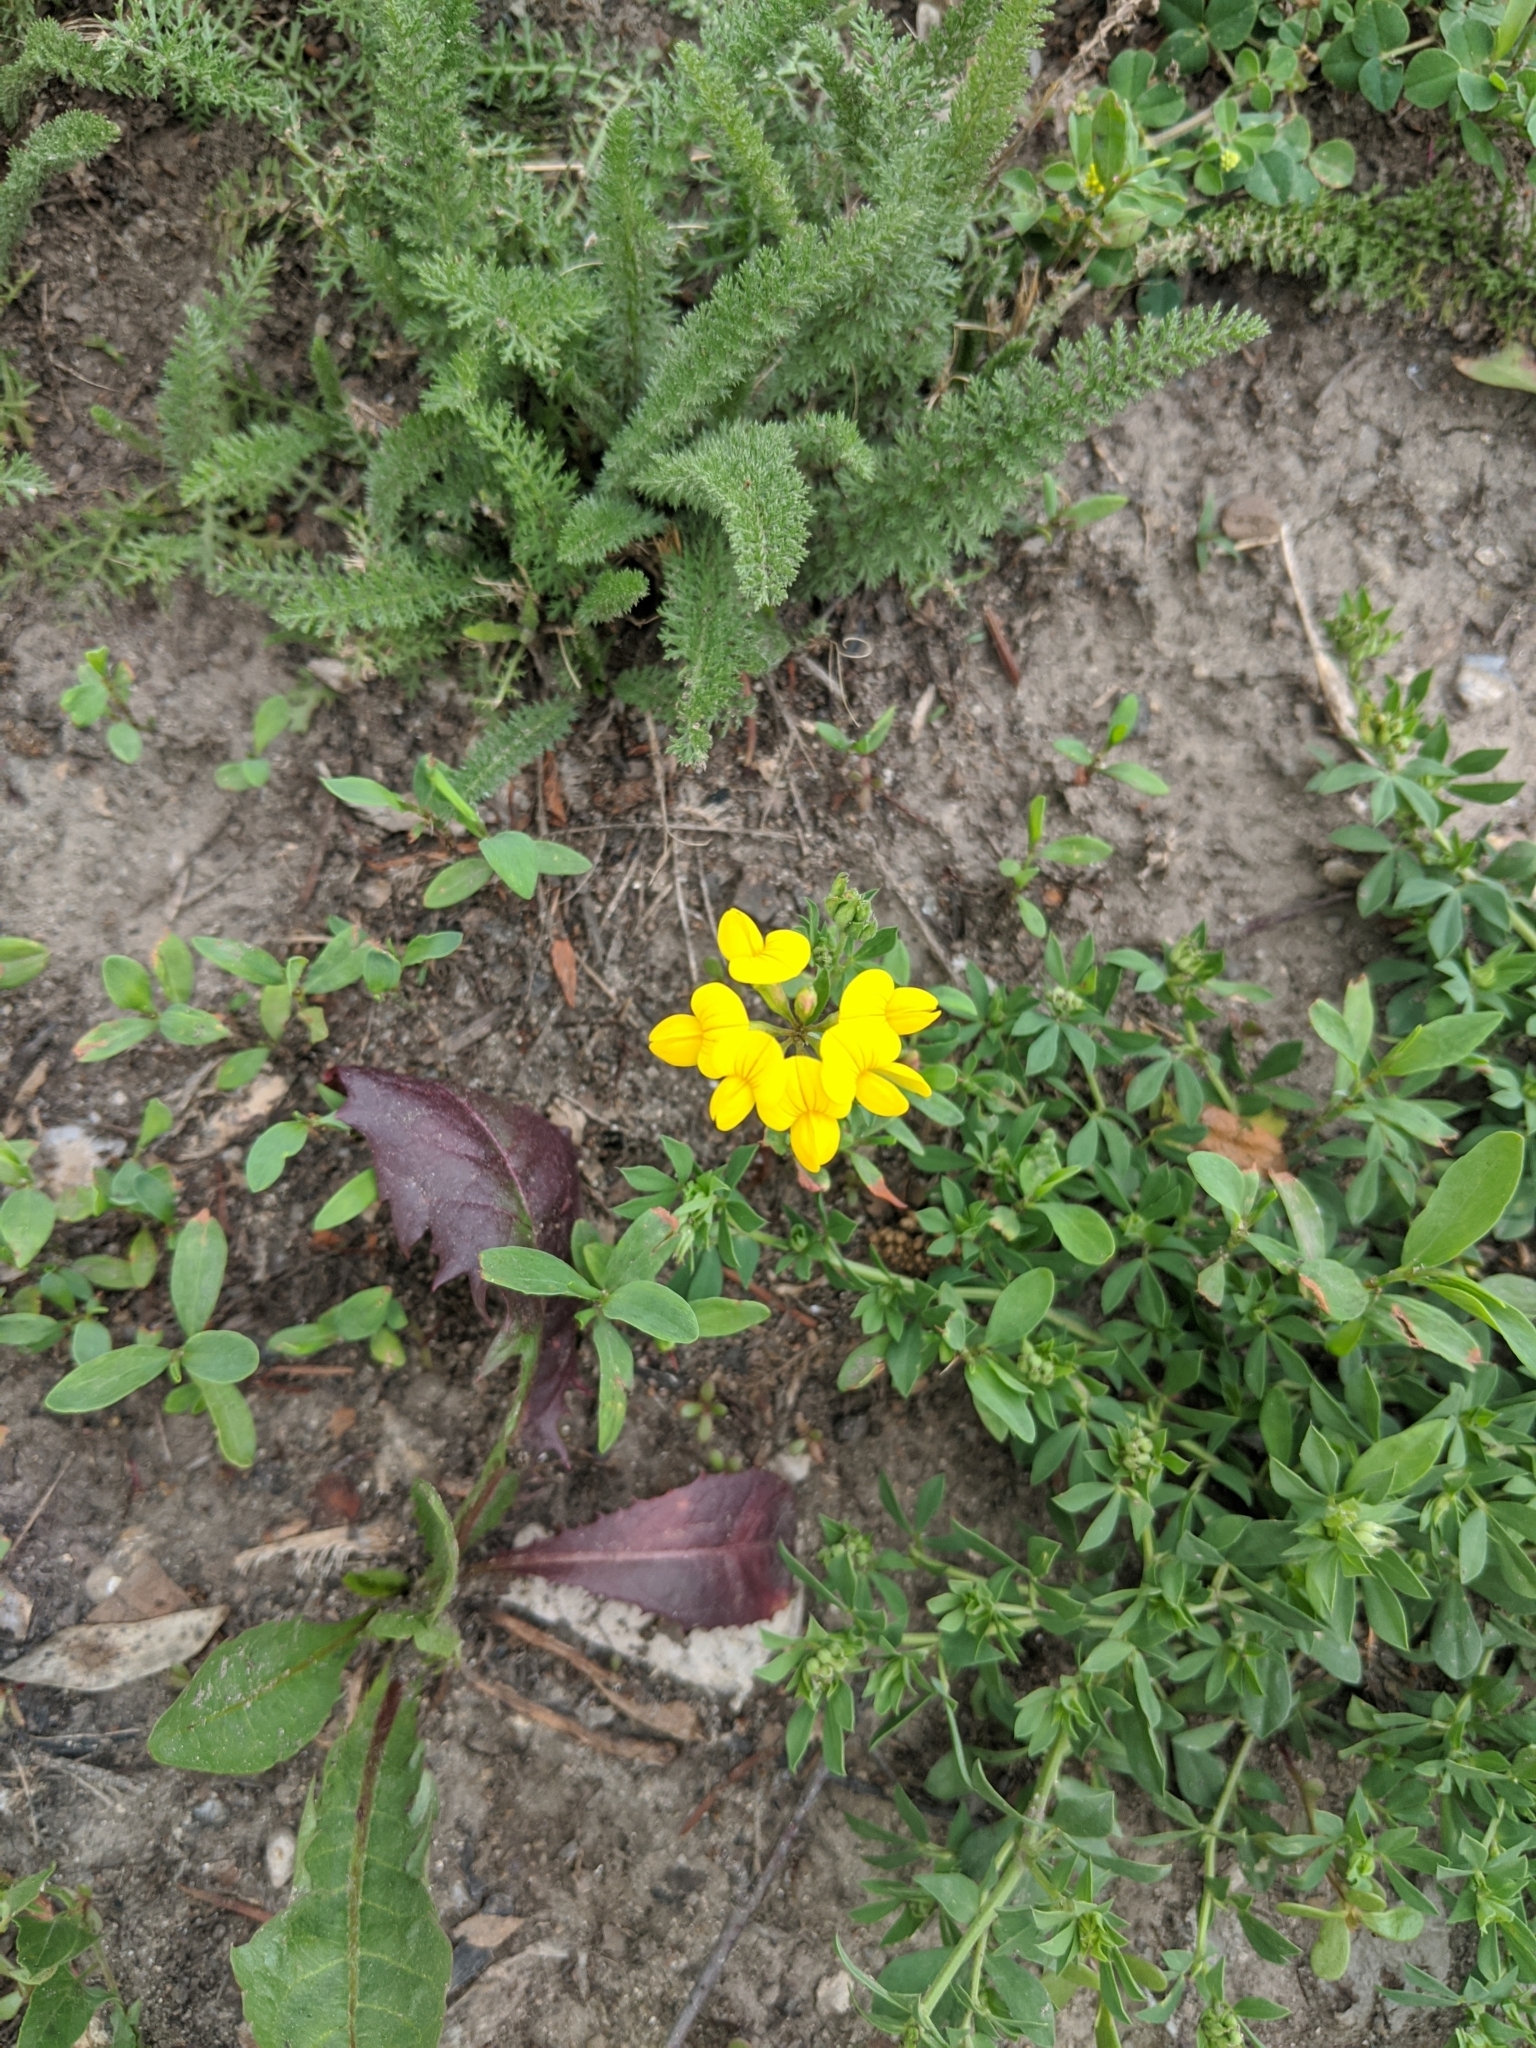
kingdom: Plantae
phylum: Tracheophyta
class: Magnoliopsida
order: Fabales
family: Fabaceae
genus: Lotus
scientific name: Lotus corniculatus
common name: Common bird's-foot-trefoil
